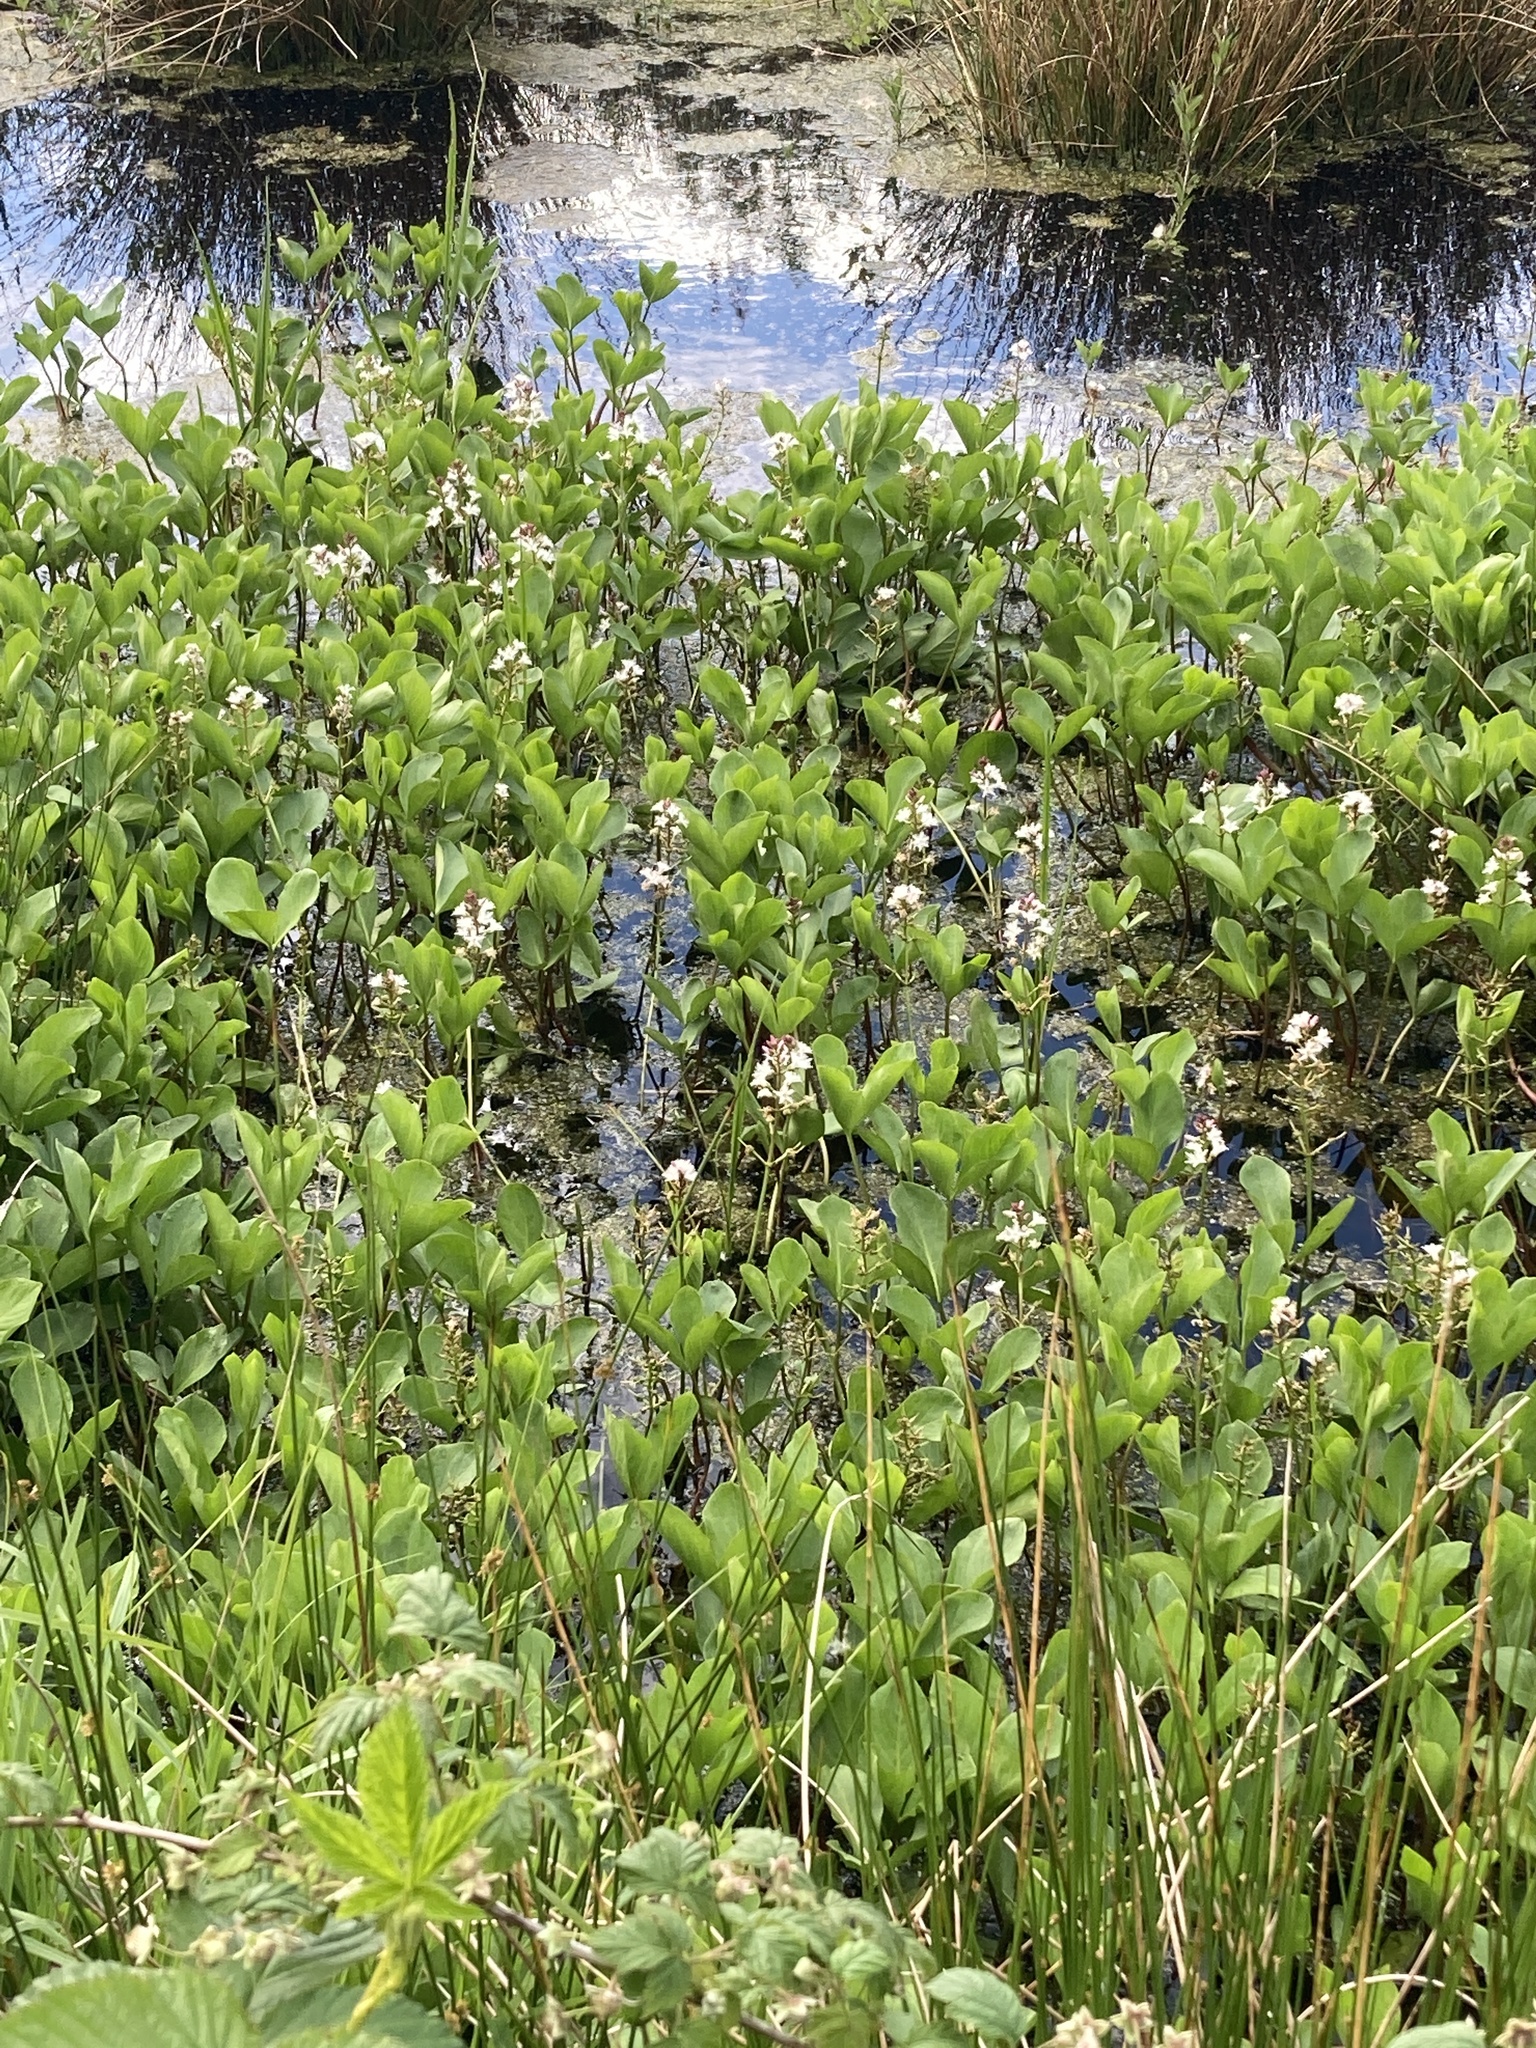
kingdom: Plantae
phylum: Tracheophyta
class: Magnoliopsida
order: Asterales
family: Menyanthaceae
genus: Menyanthes
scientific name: Menyanthes trifoliata
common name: Bogbean
